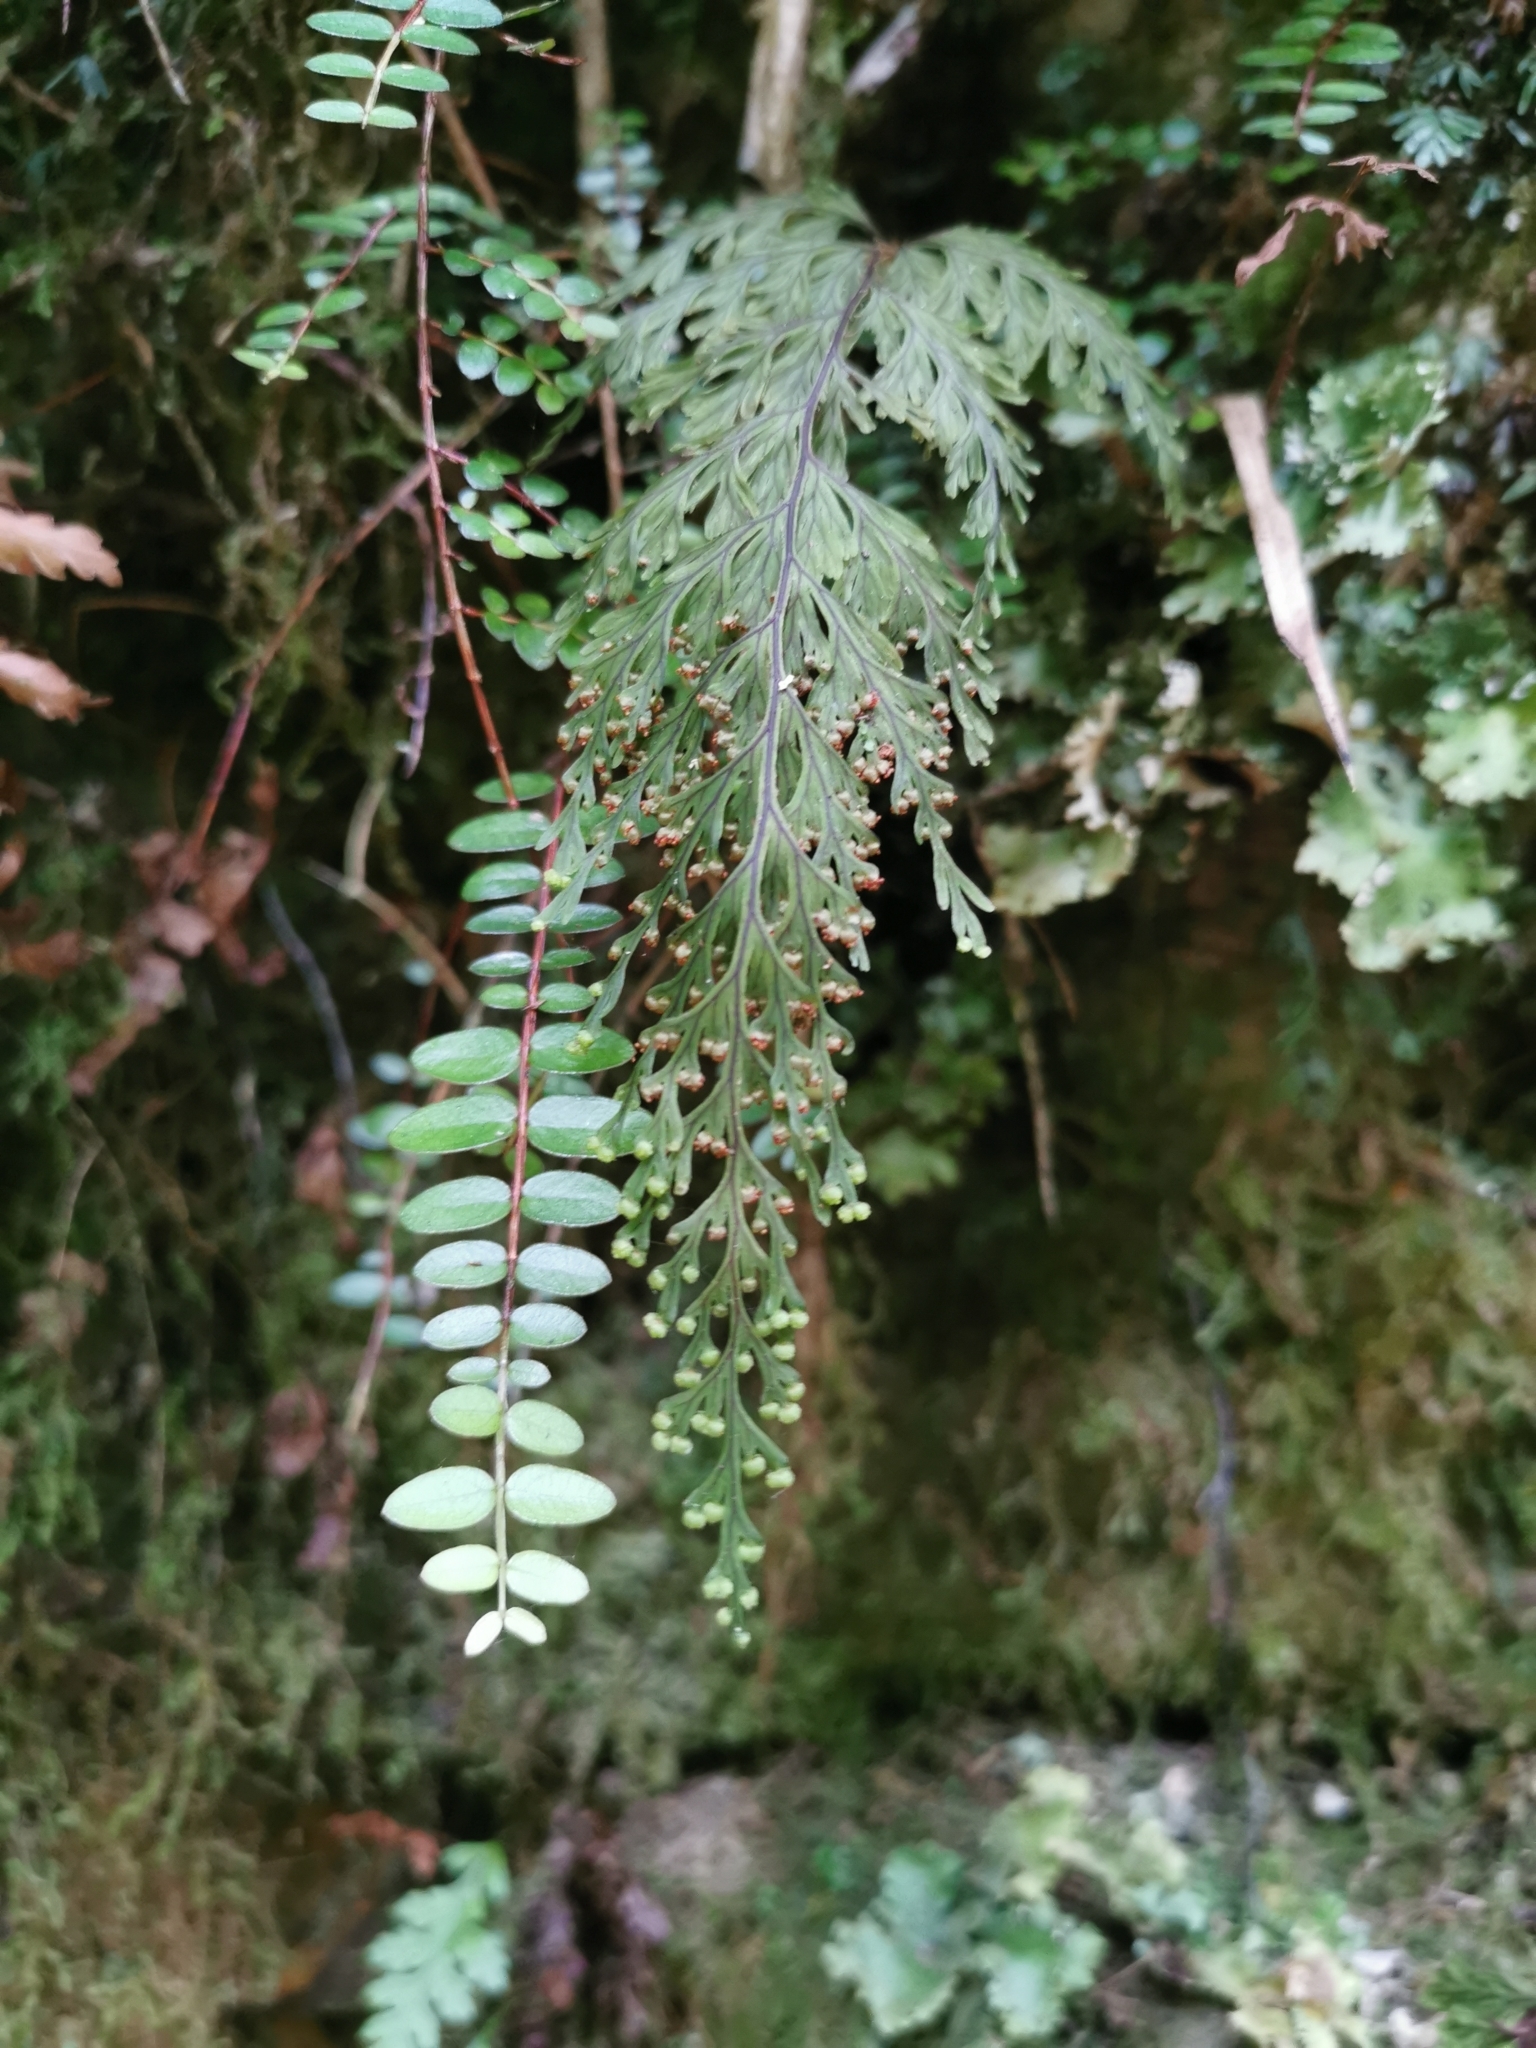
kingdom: Plantae
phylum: Tracheophyta
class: Polypodiopsida
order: Hymenophyllales
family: Hymenophyllaceae
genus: Hymenophyllum
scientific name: Hymenophyllum scabrum
